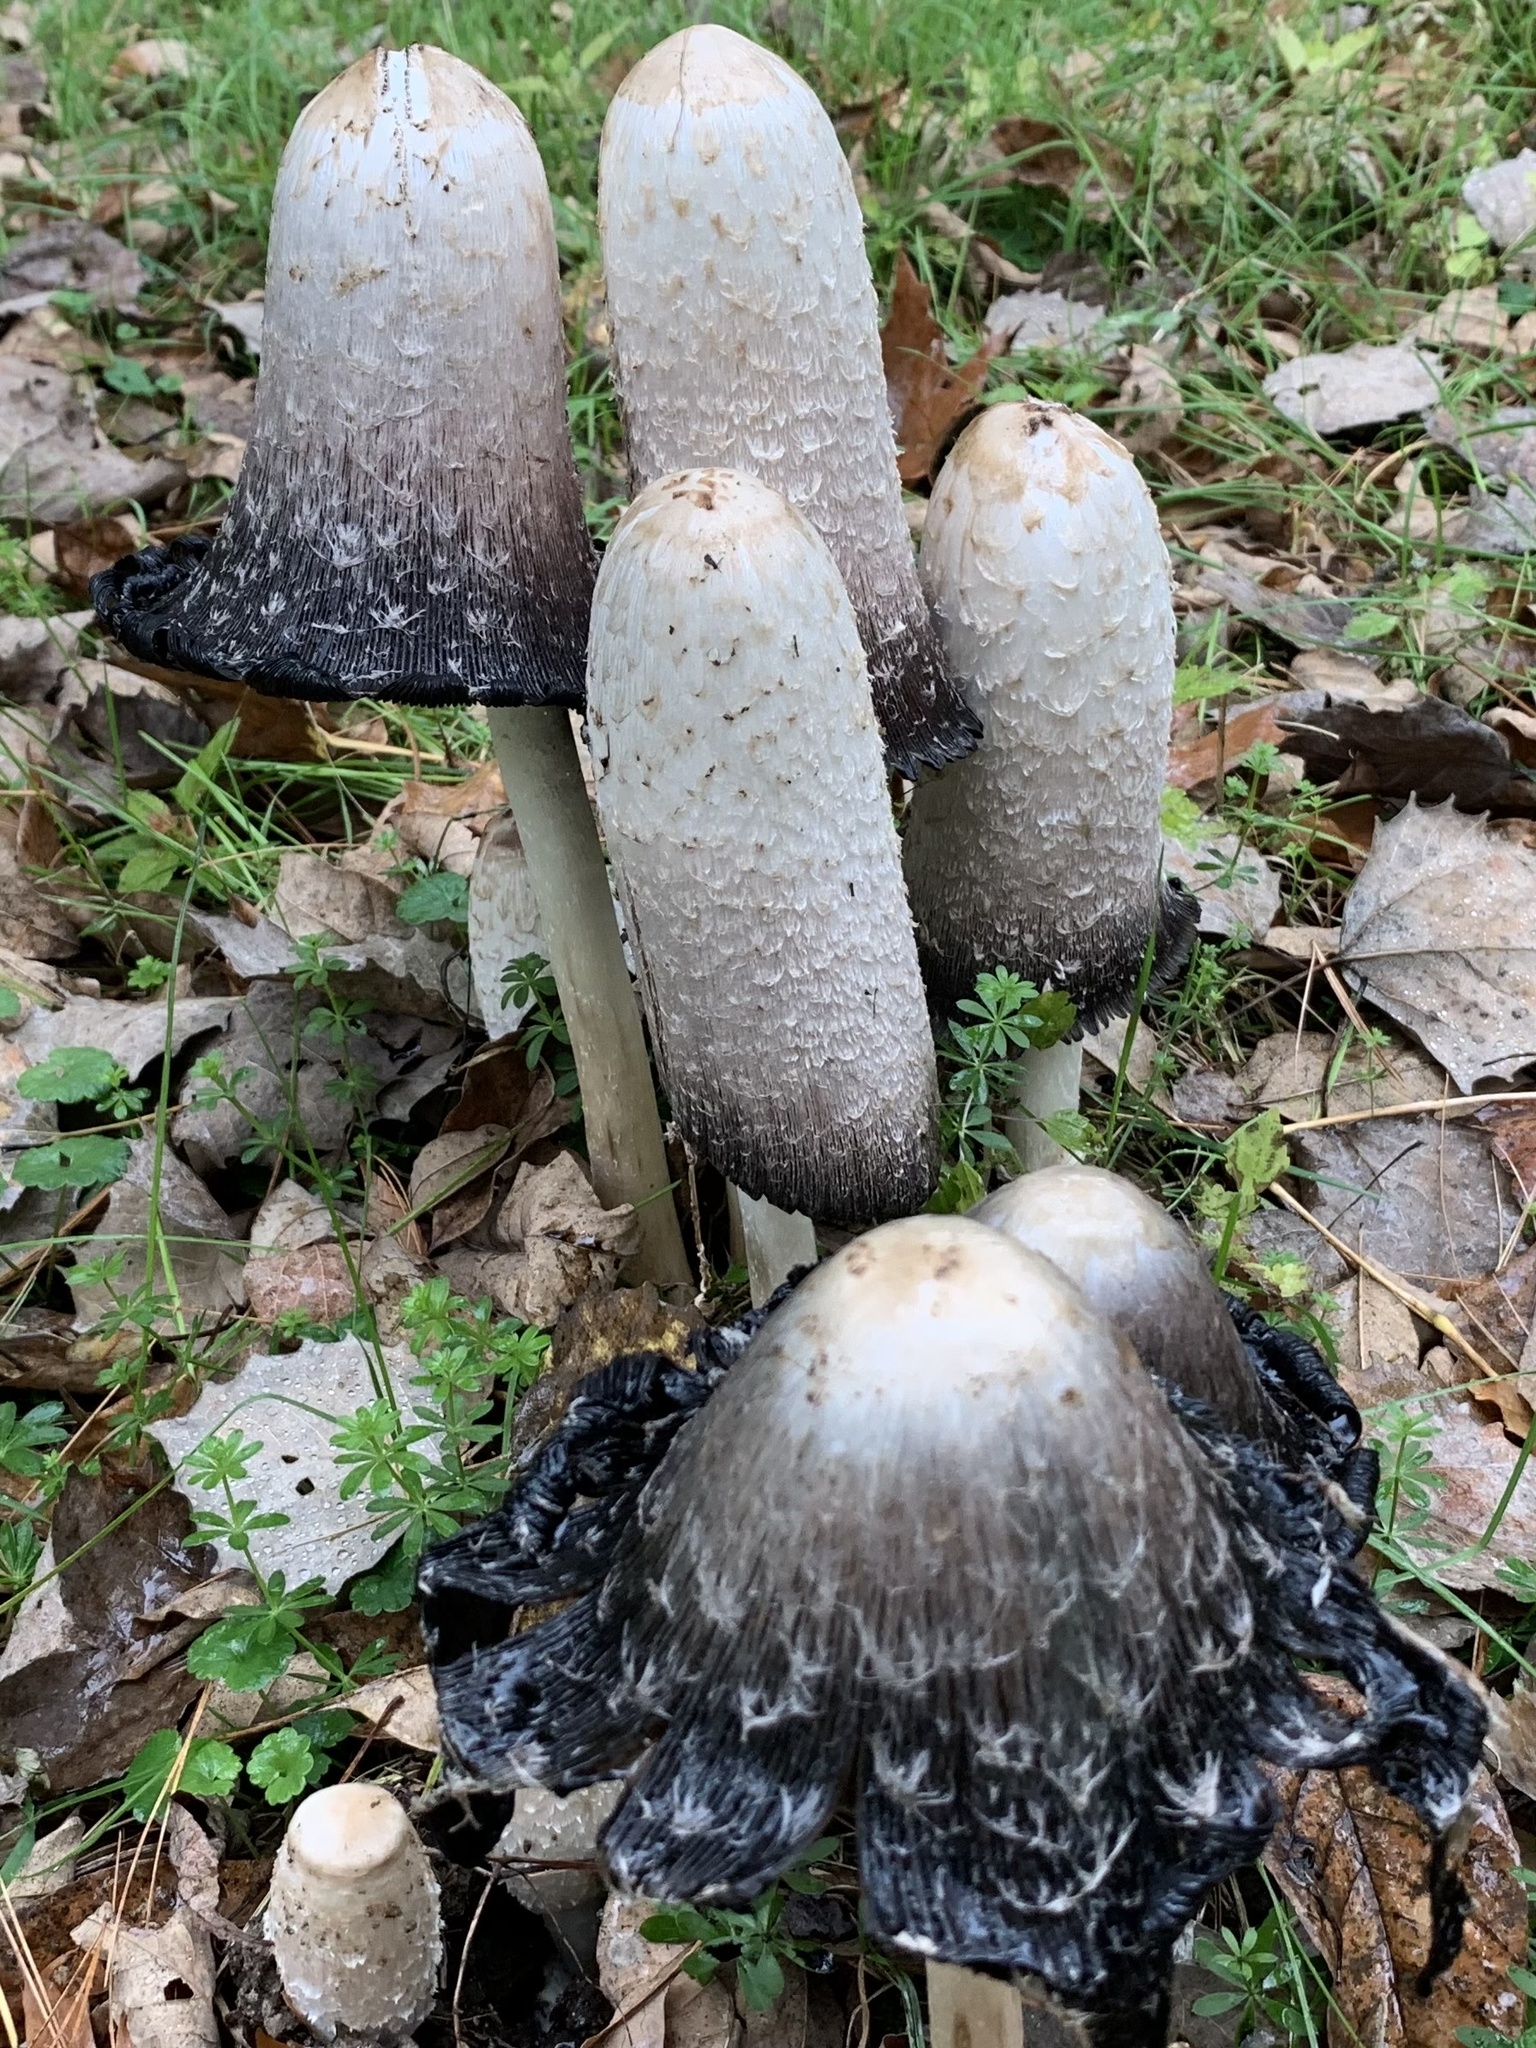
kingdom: Fungi
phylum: Basidiomycota
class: Agaricomycetes
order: Agaricales
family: Agaricaceae
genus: Coprinus
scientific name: Coprinus comatus
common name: Lawyer's wig
